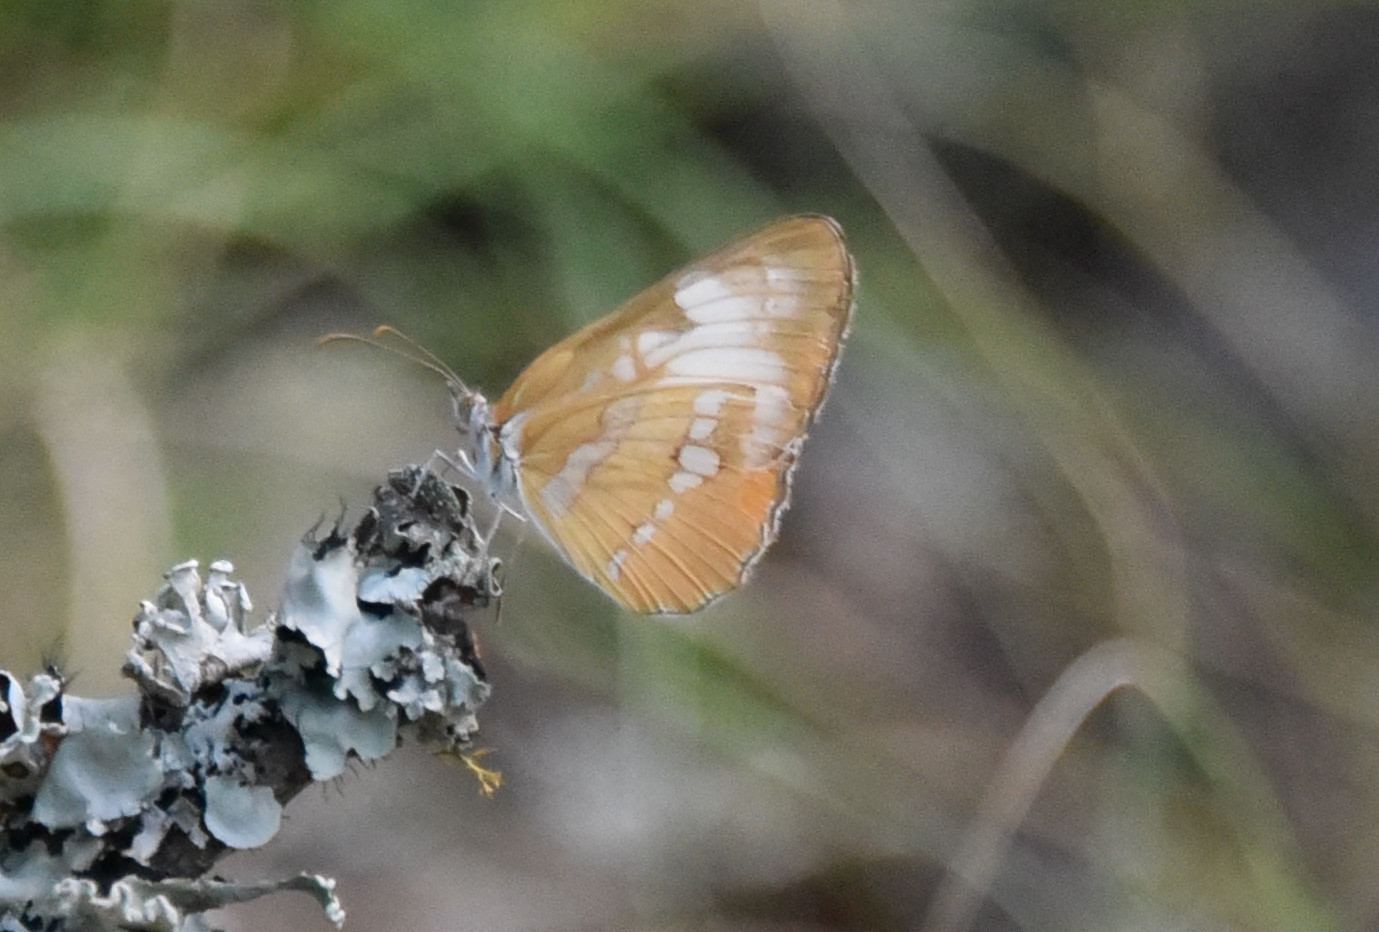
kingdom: Animalia
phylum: Arthropoda
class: Insecta
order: Lepidoptera
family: Nymphalidae
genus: Mestra
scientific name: Mestra amymone
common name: Common mestra
